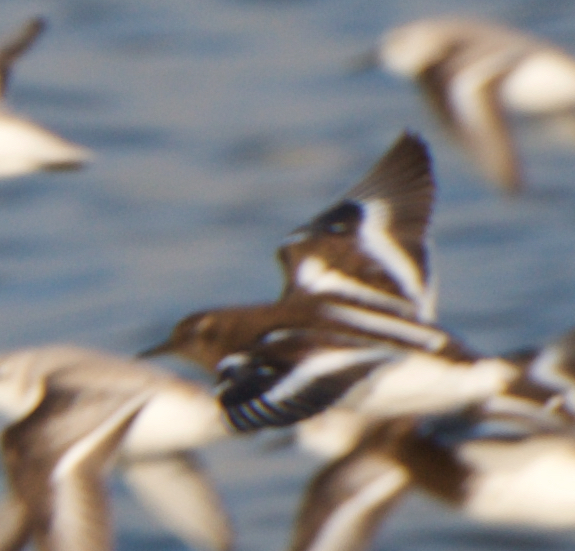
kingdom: Animalia
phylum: Chordata
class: Aves
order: Charadriiformes
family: Scolopacidae
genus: Arenaria
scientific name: Arenaria melanocephala
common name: Black turnstone
